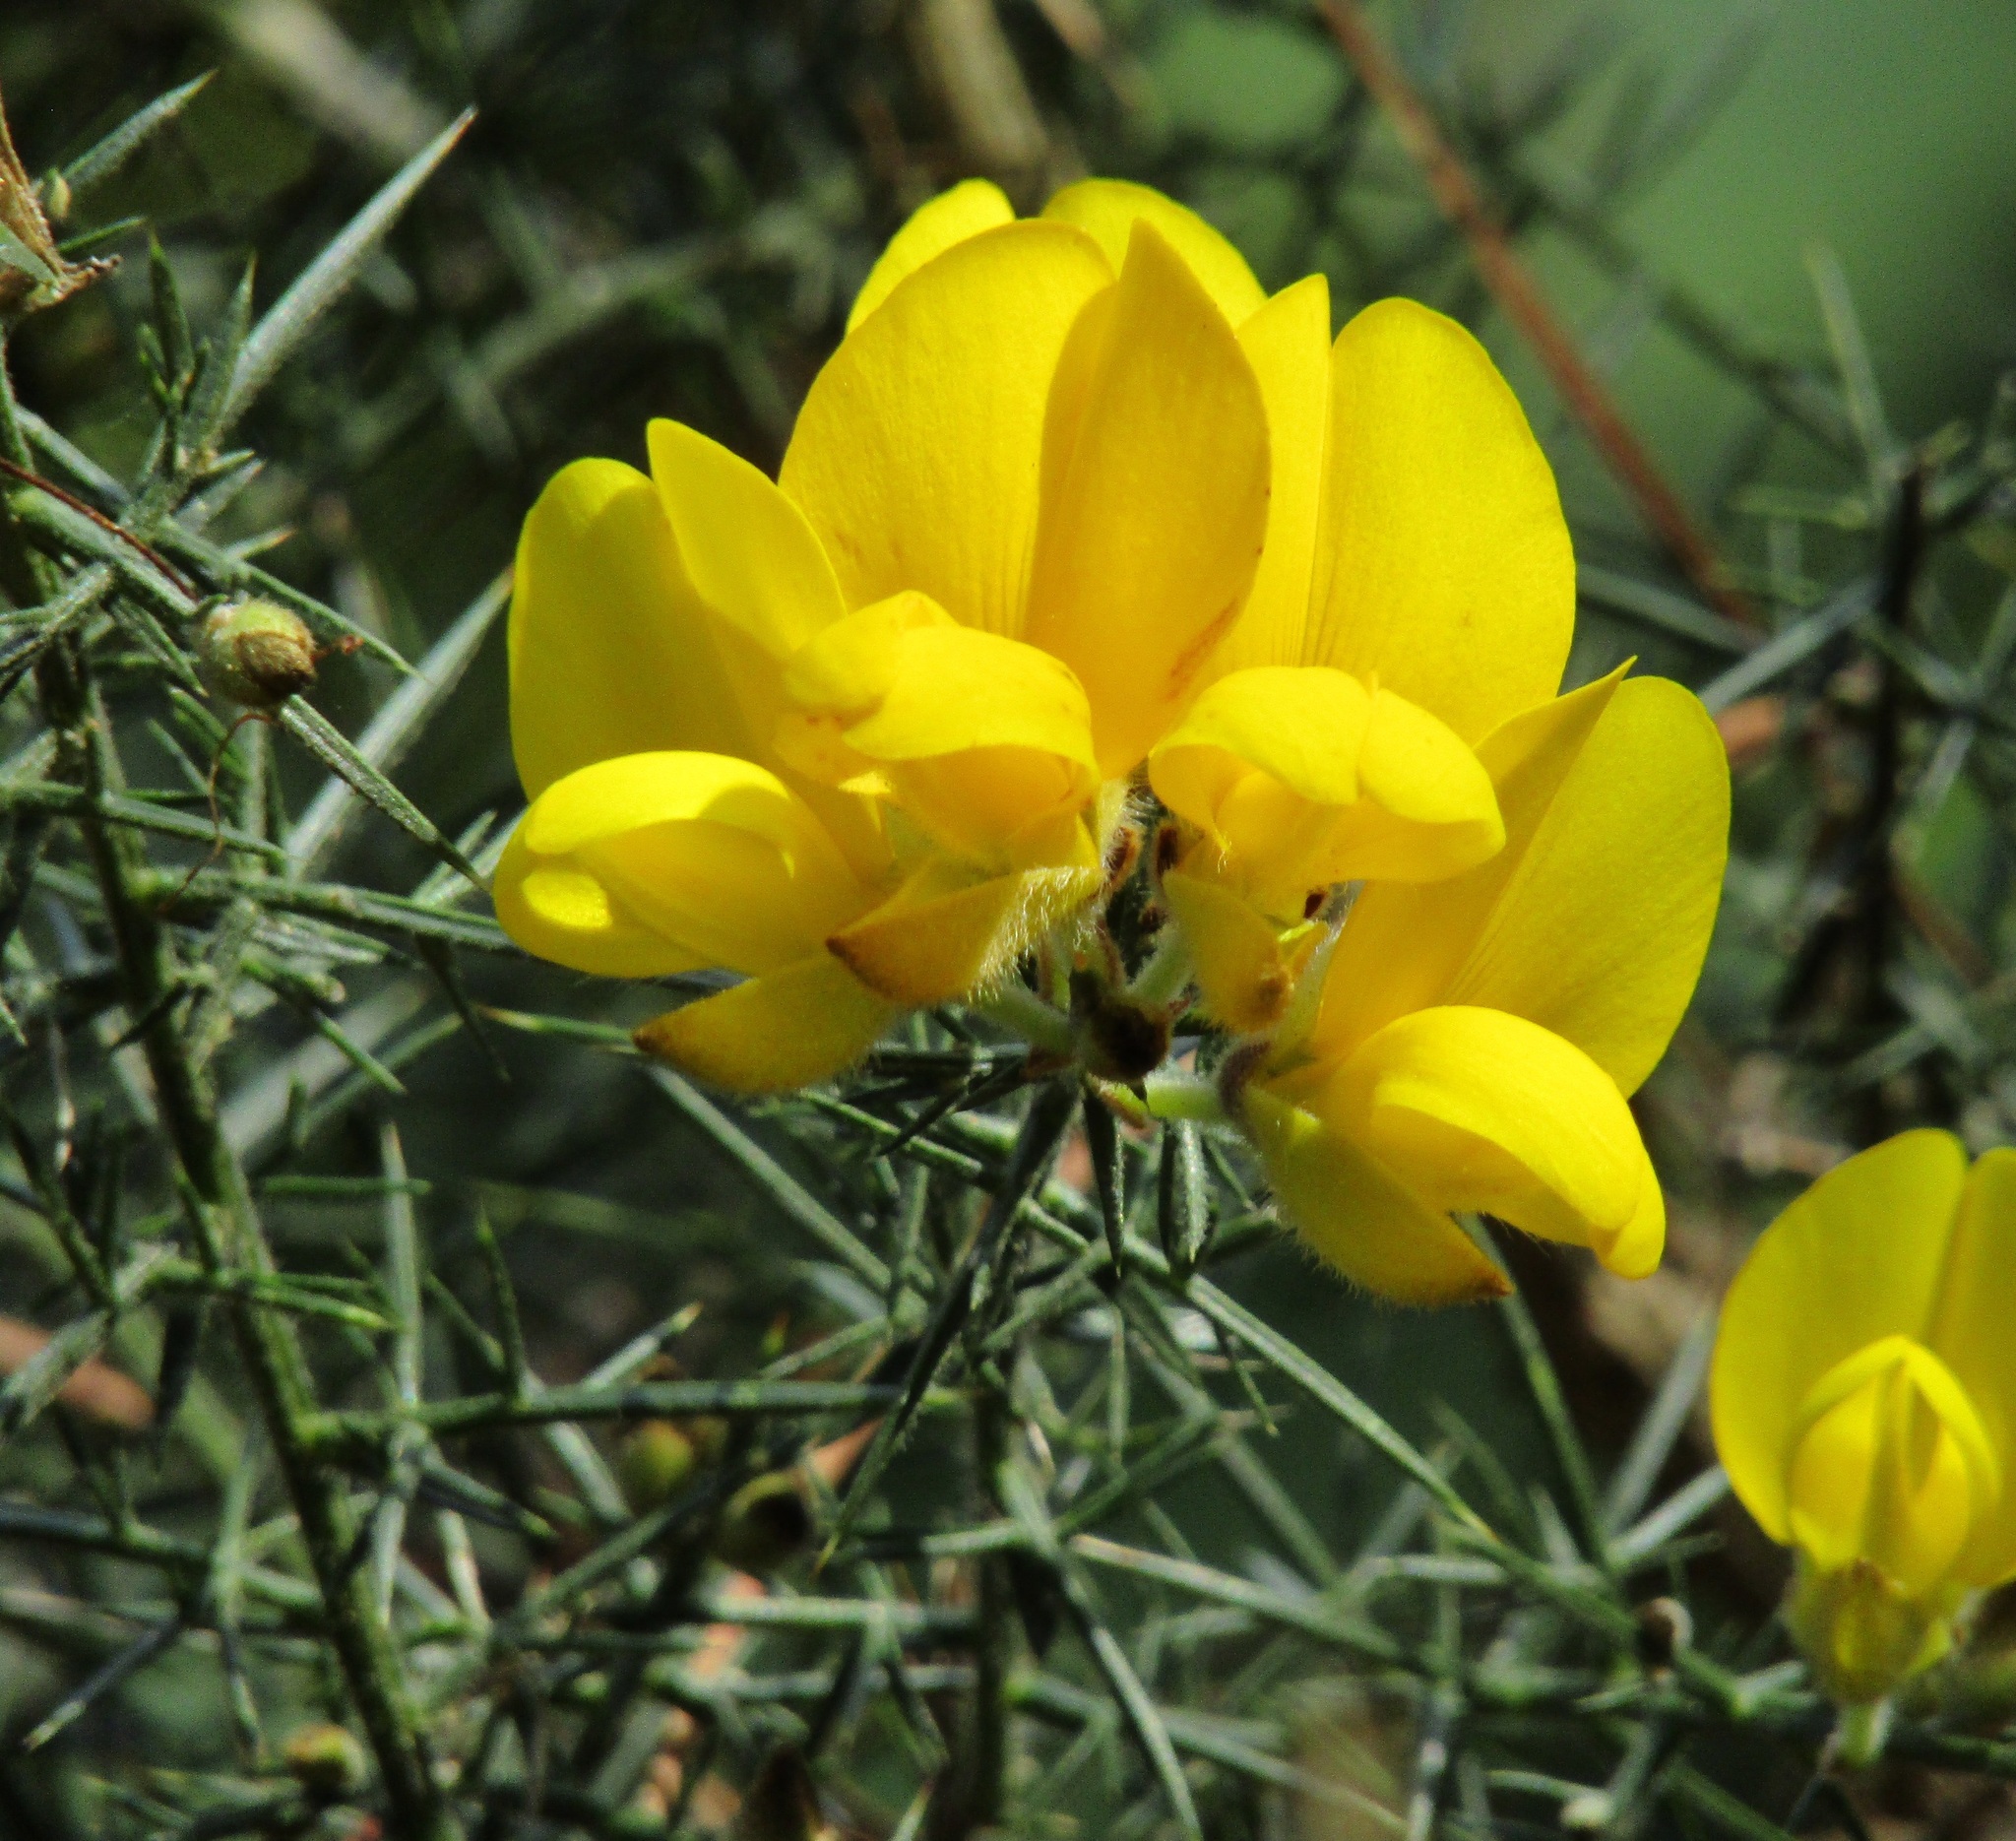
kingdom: Plantae
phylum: Tracheophyta
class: Magnoliopsida
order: Fabales
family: Fabaceae
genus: Ulex
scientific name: Ulex europaeus
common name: Common gorse
